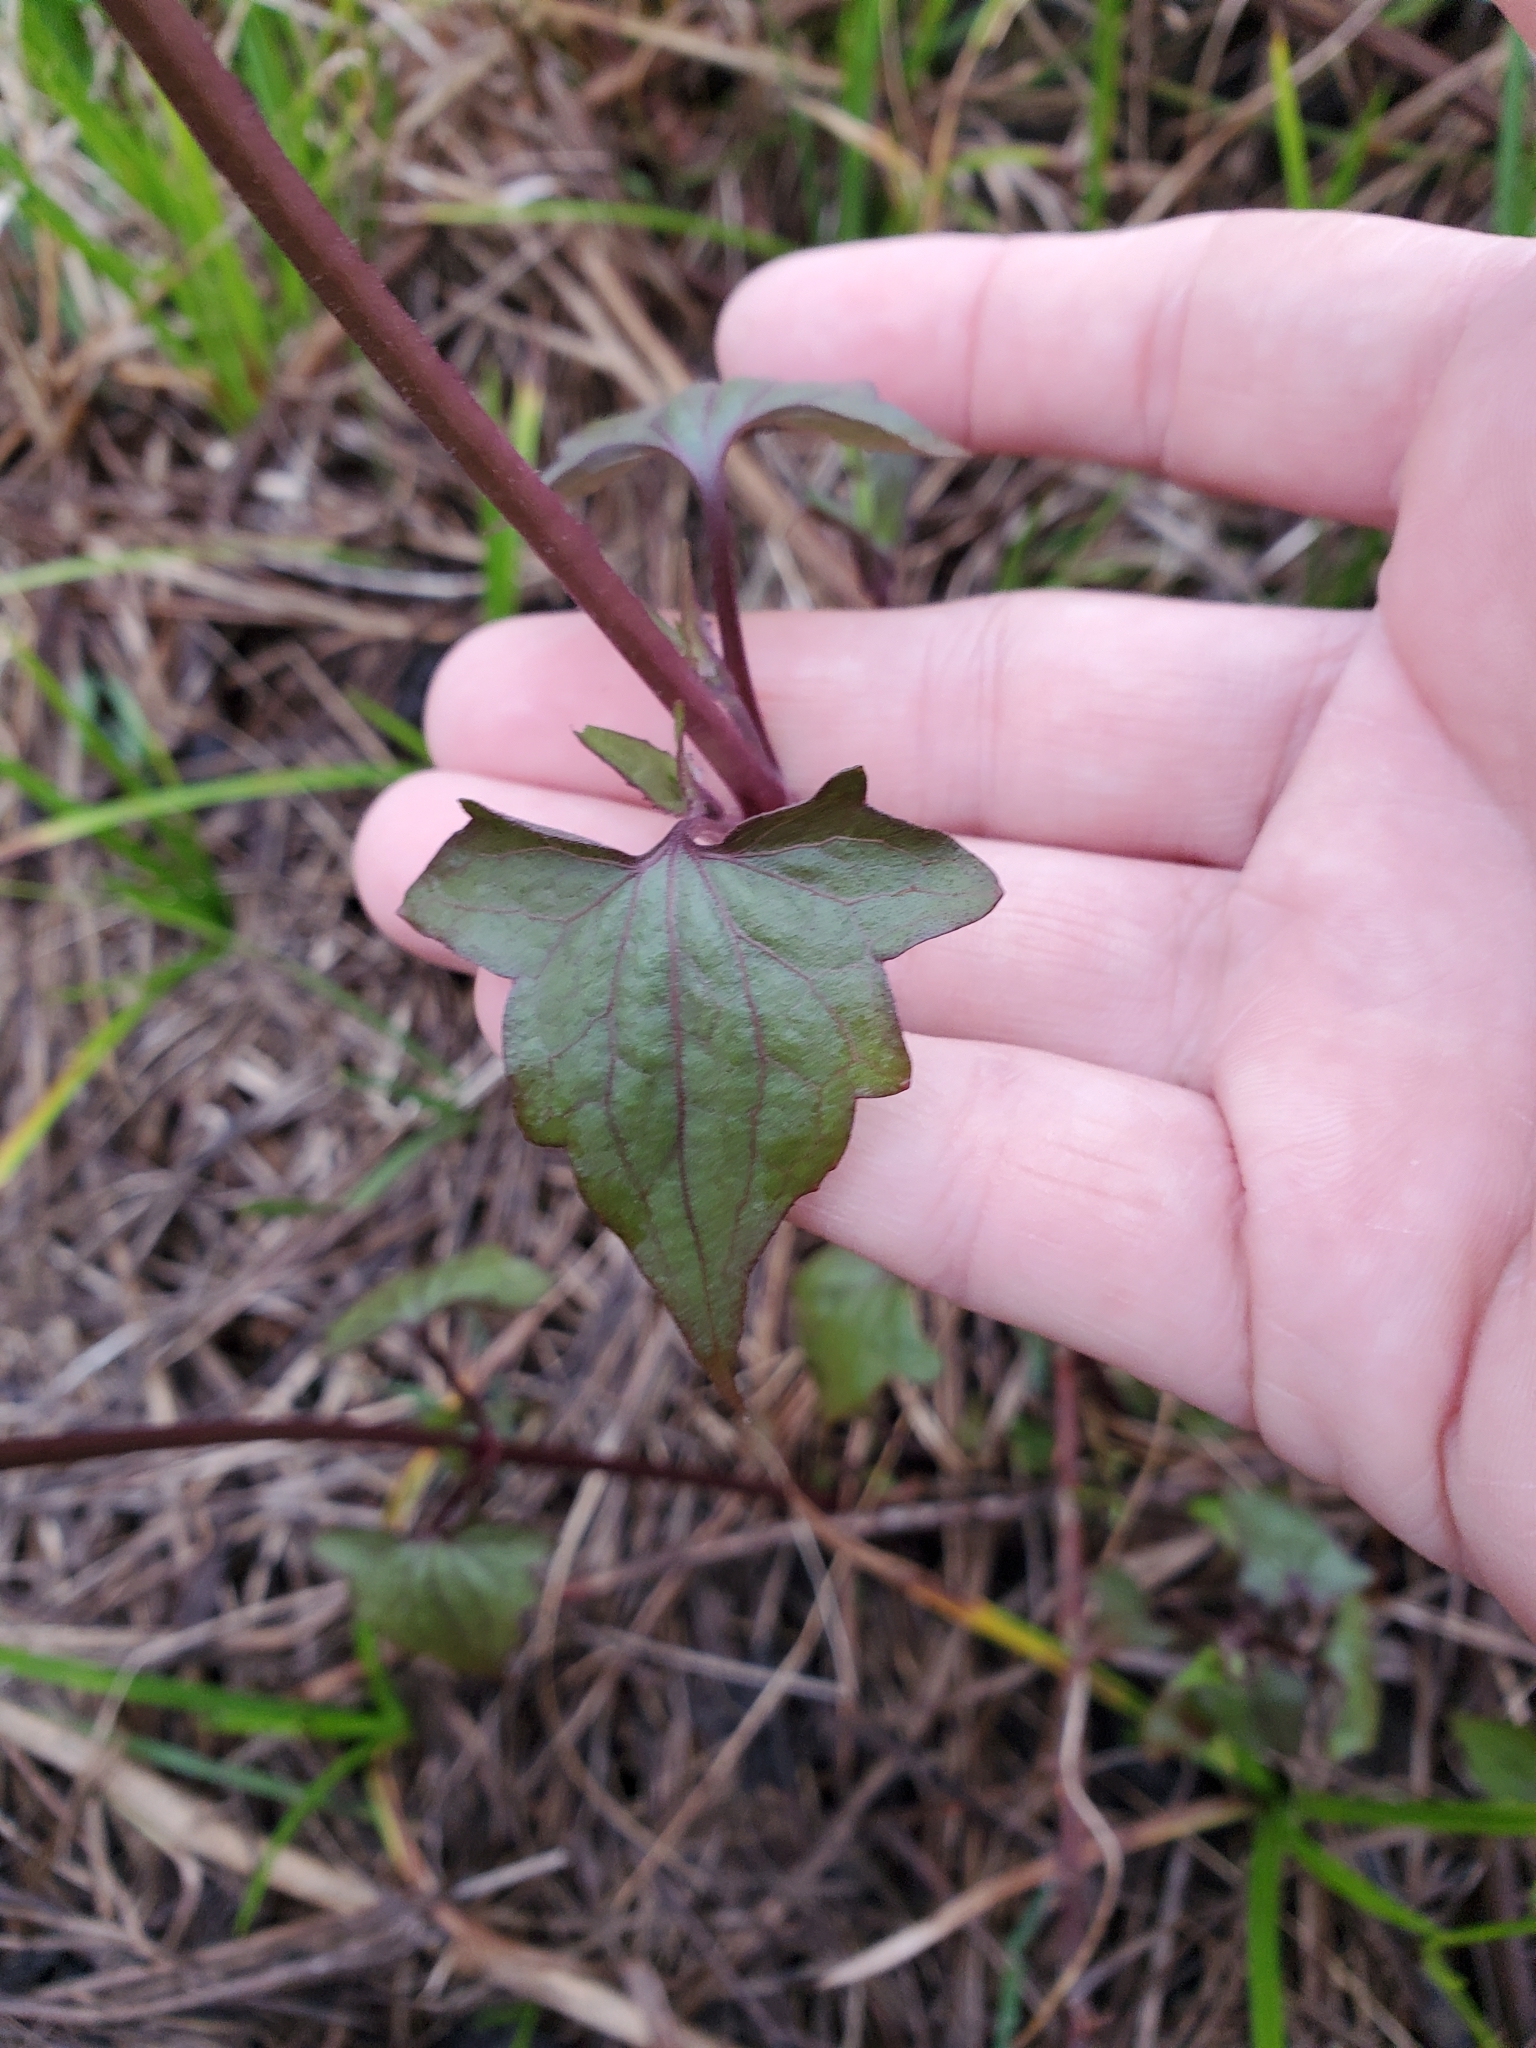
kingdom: Plantae
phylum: Tracheophyta
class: Magnoliopsida
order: Asterales
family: Asteraceae
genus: Mikania
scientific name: Mikania scandens
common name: Climbing hempvine
